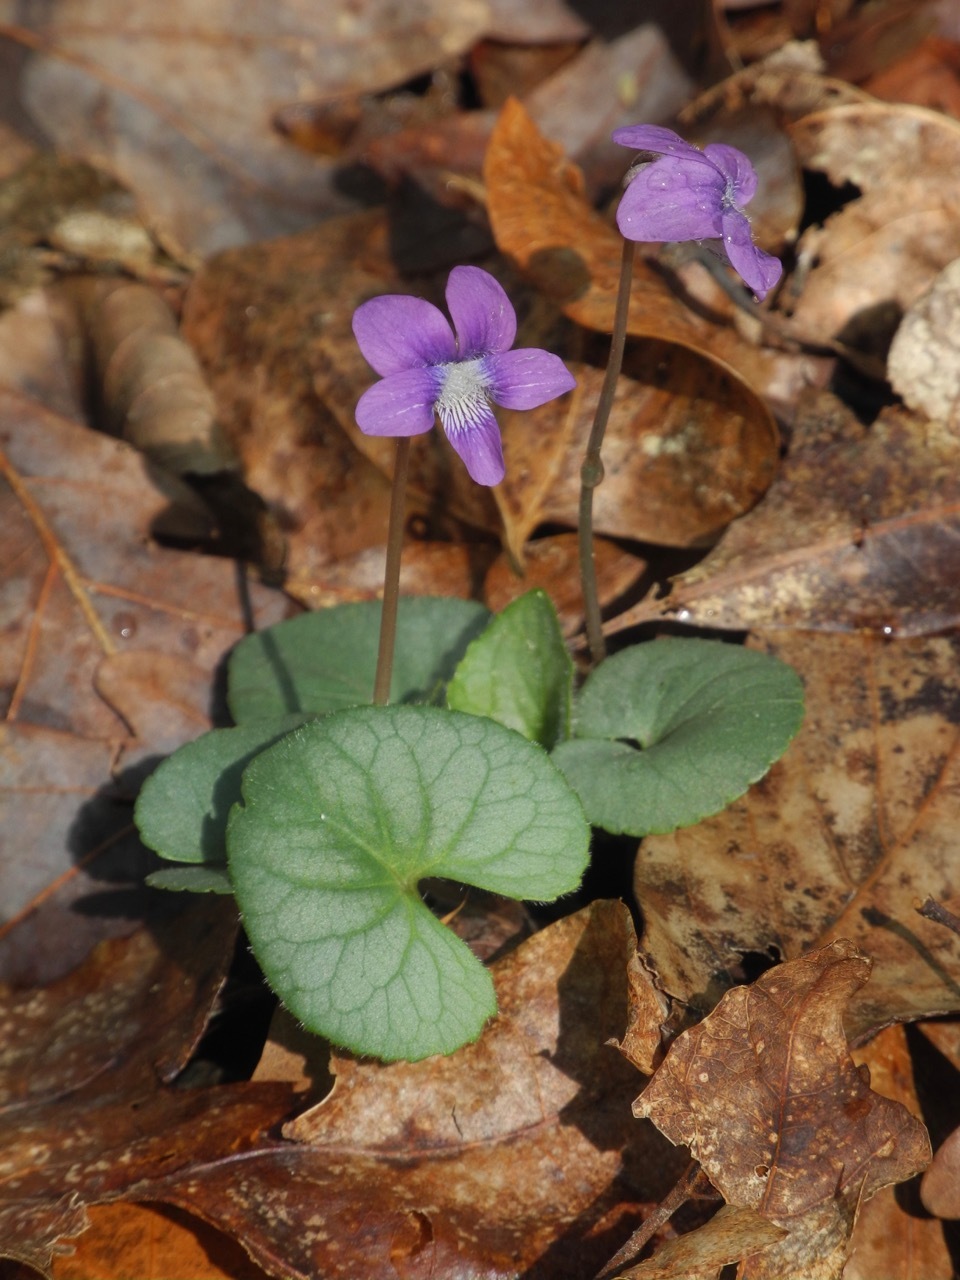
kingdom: Plantae
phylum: Tracheophyta
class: Magnoliopsida
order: Malpighiales
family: Violaceae
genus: Viola
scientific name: Viola sororia
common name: Dooryard violet
